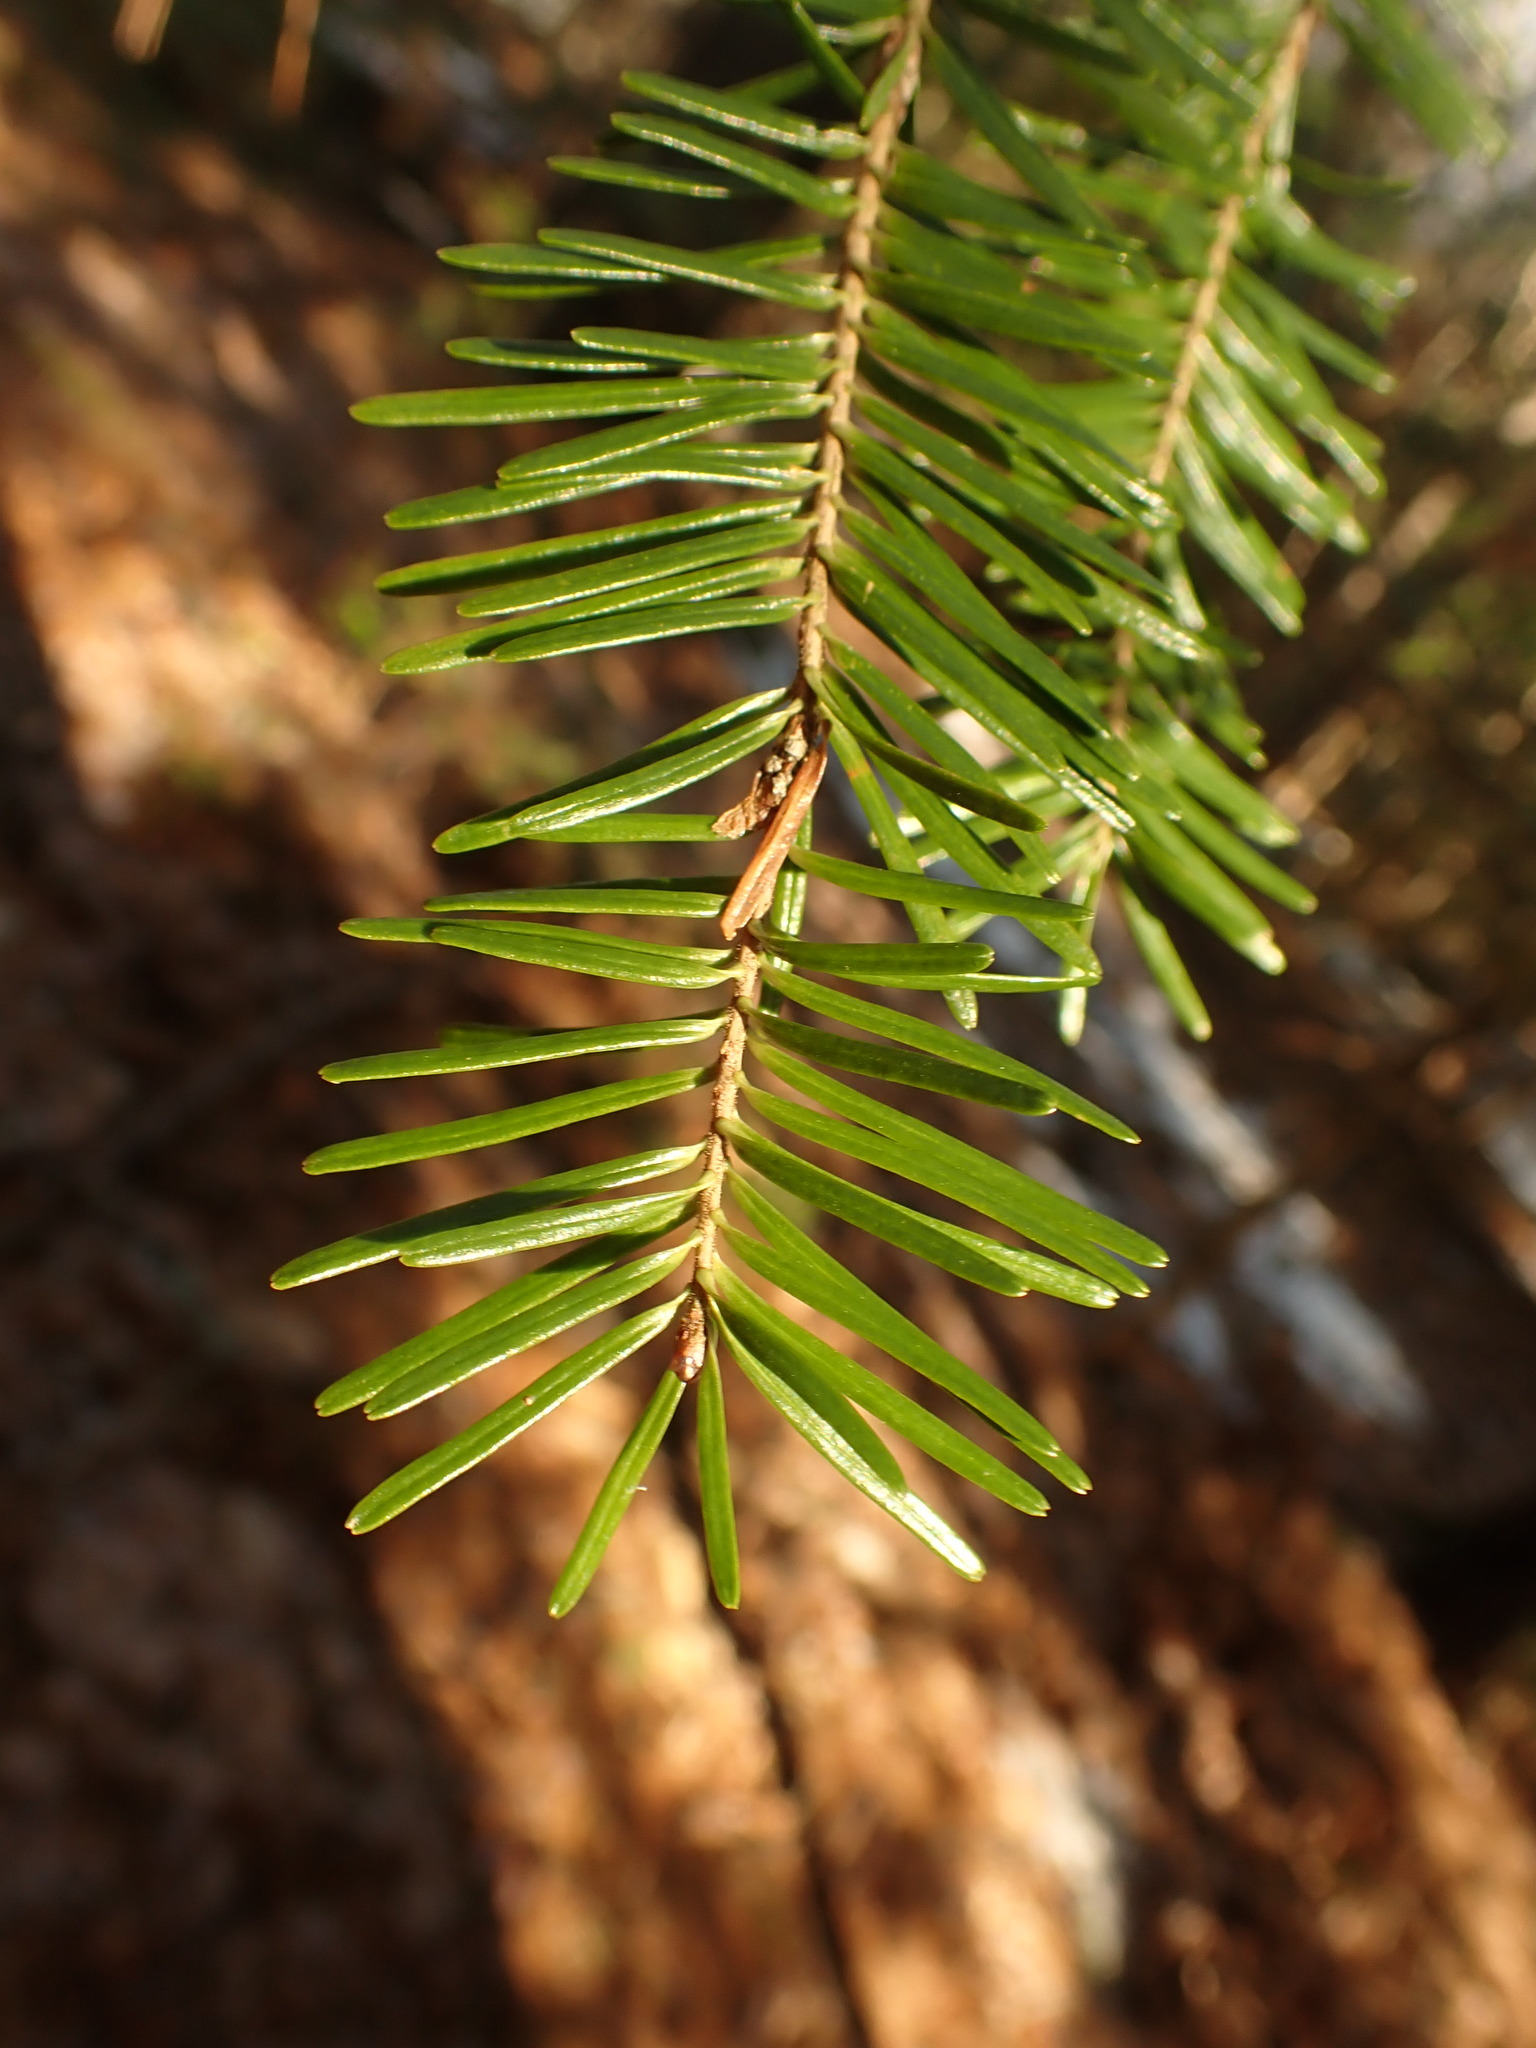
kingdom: Plantae
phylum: Tracheophyta
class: Pinopsida
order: Pinales
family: Pinaceae
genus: Abies
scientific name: Abies balsamea
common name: Balsam fir
